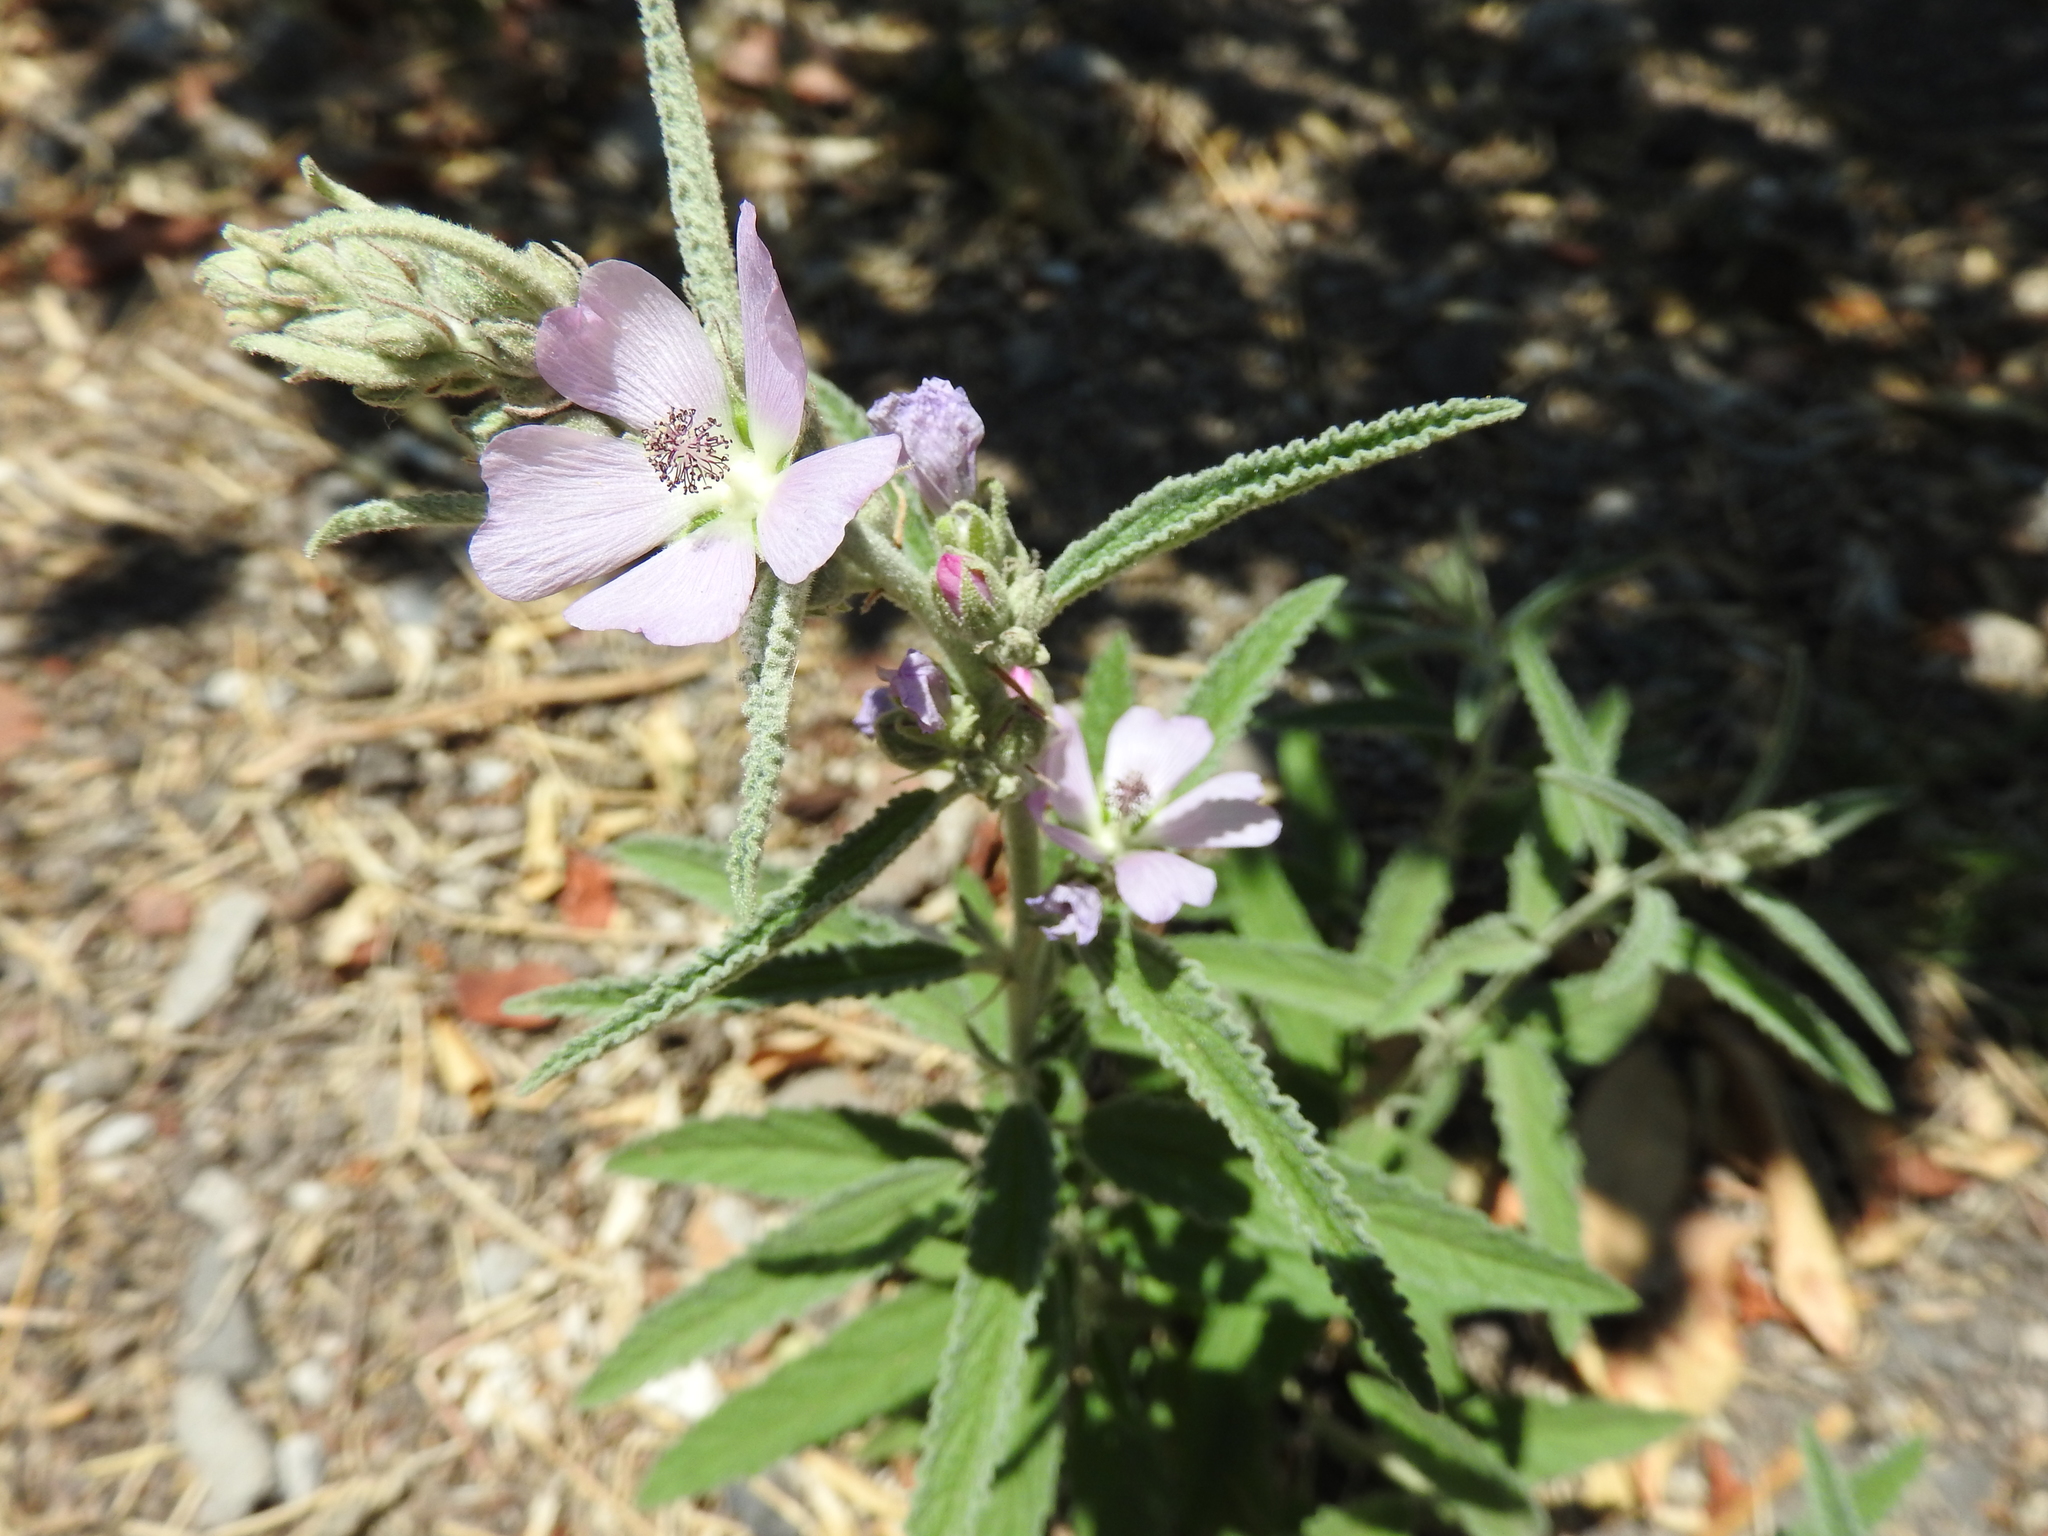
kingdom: Plantae
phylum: Tracheophyta
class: Magnoliopsida
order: Malvales
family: Malvaceae
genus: Sphaeralcea
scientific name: Sphaeralcea angustifolia
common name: Copper globe-mallow
